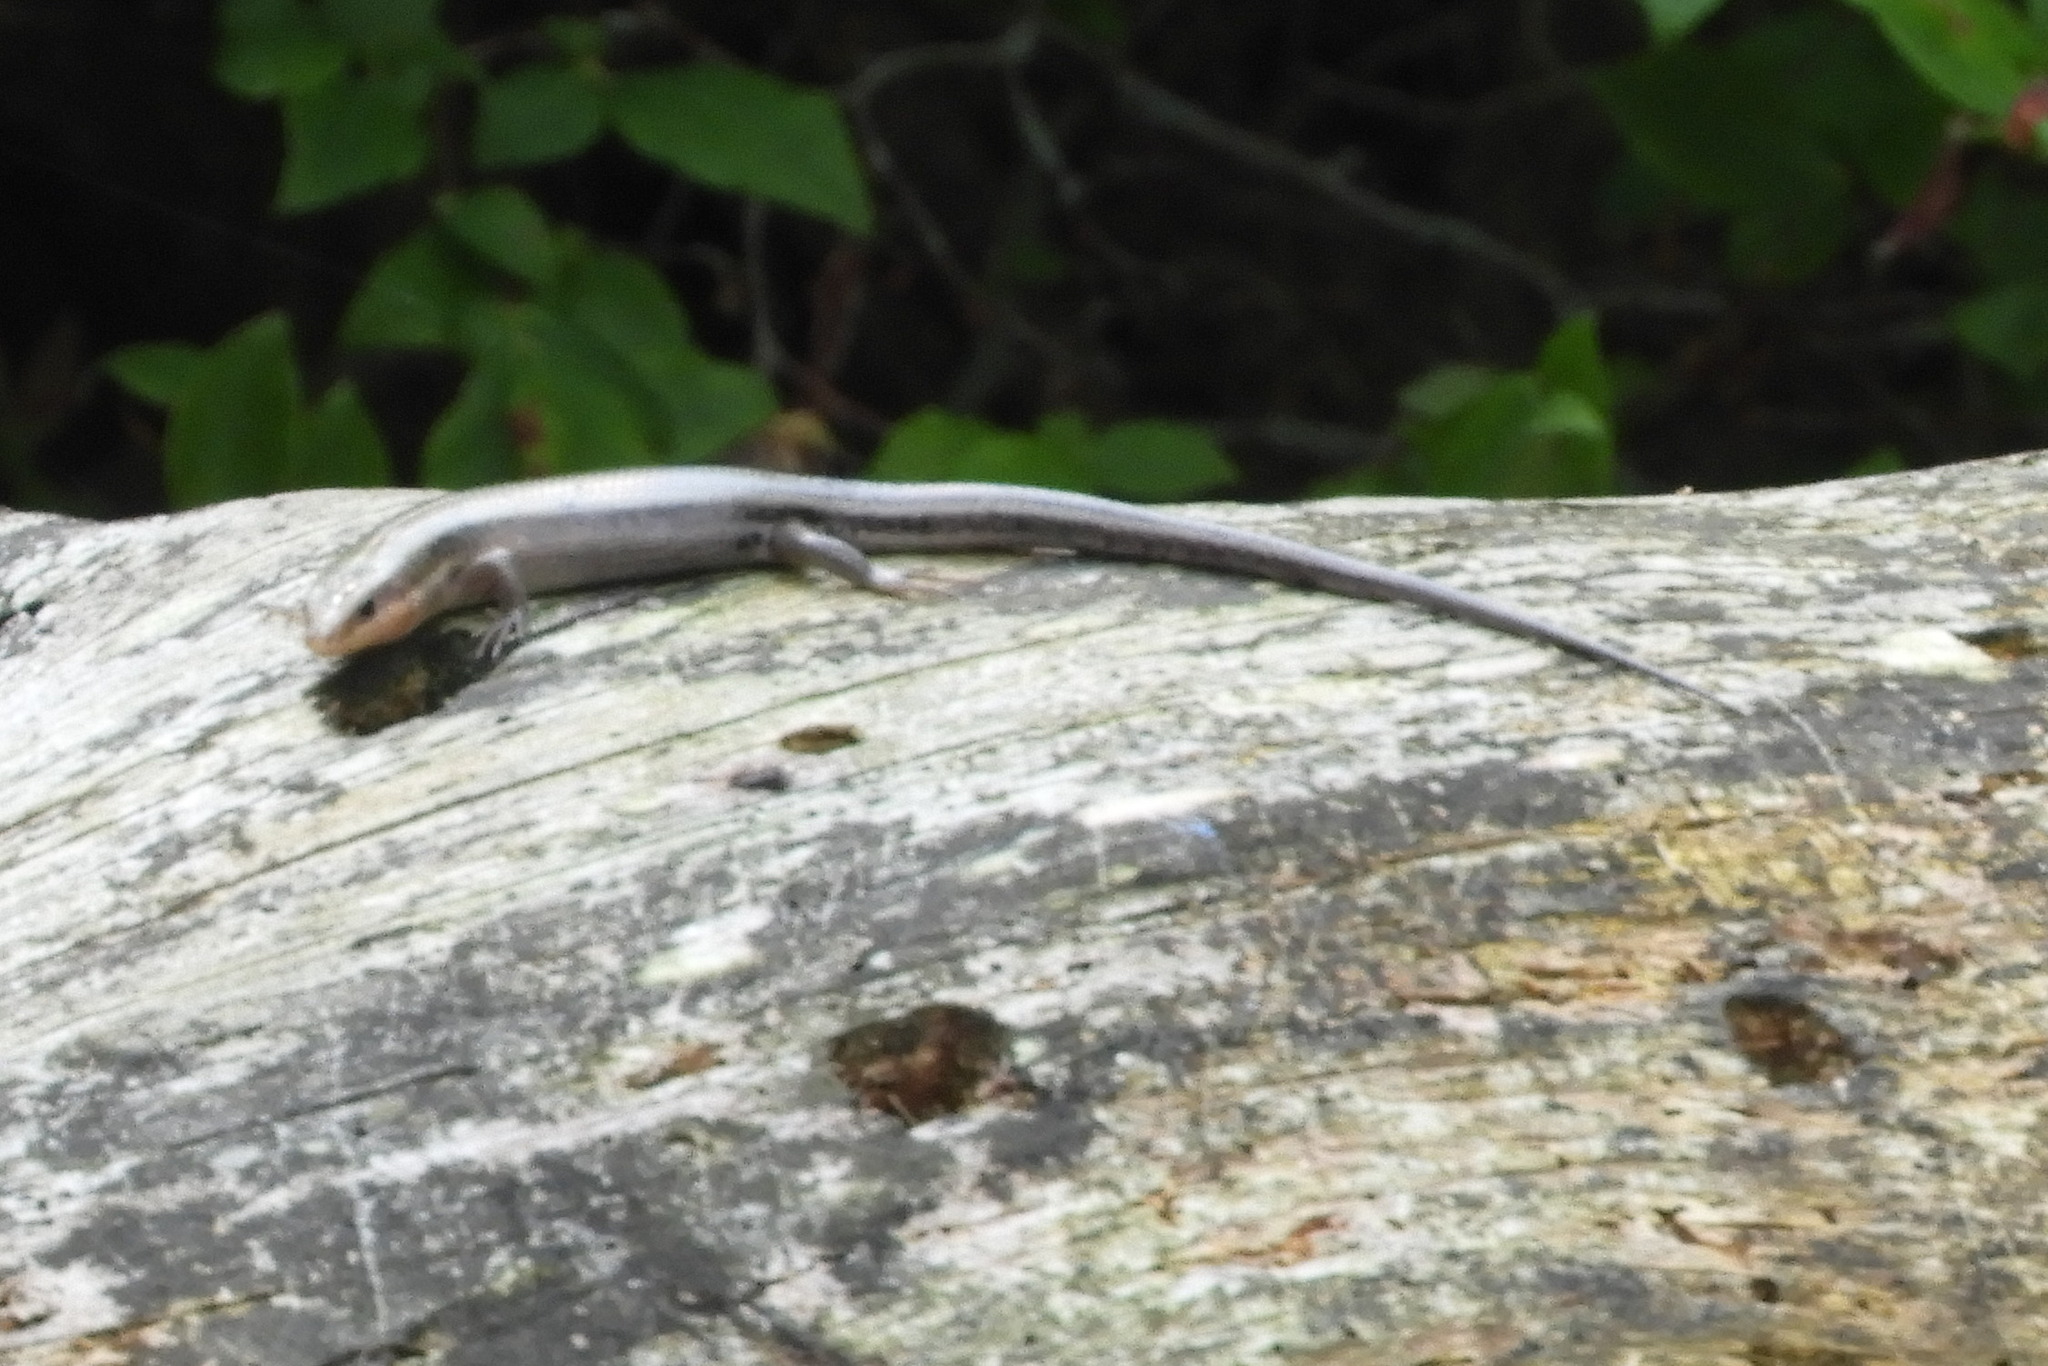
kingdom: Animalia
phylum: Chordata
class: Squamata
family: Scincidae
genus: Plestiodon
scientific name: Plestiodon fasciatus
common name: Five-lined skink
